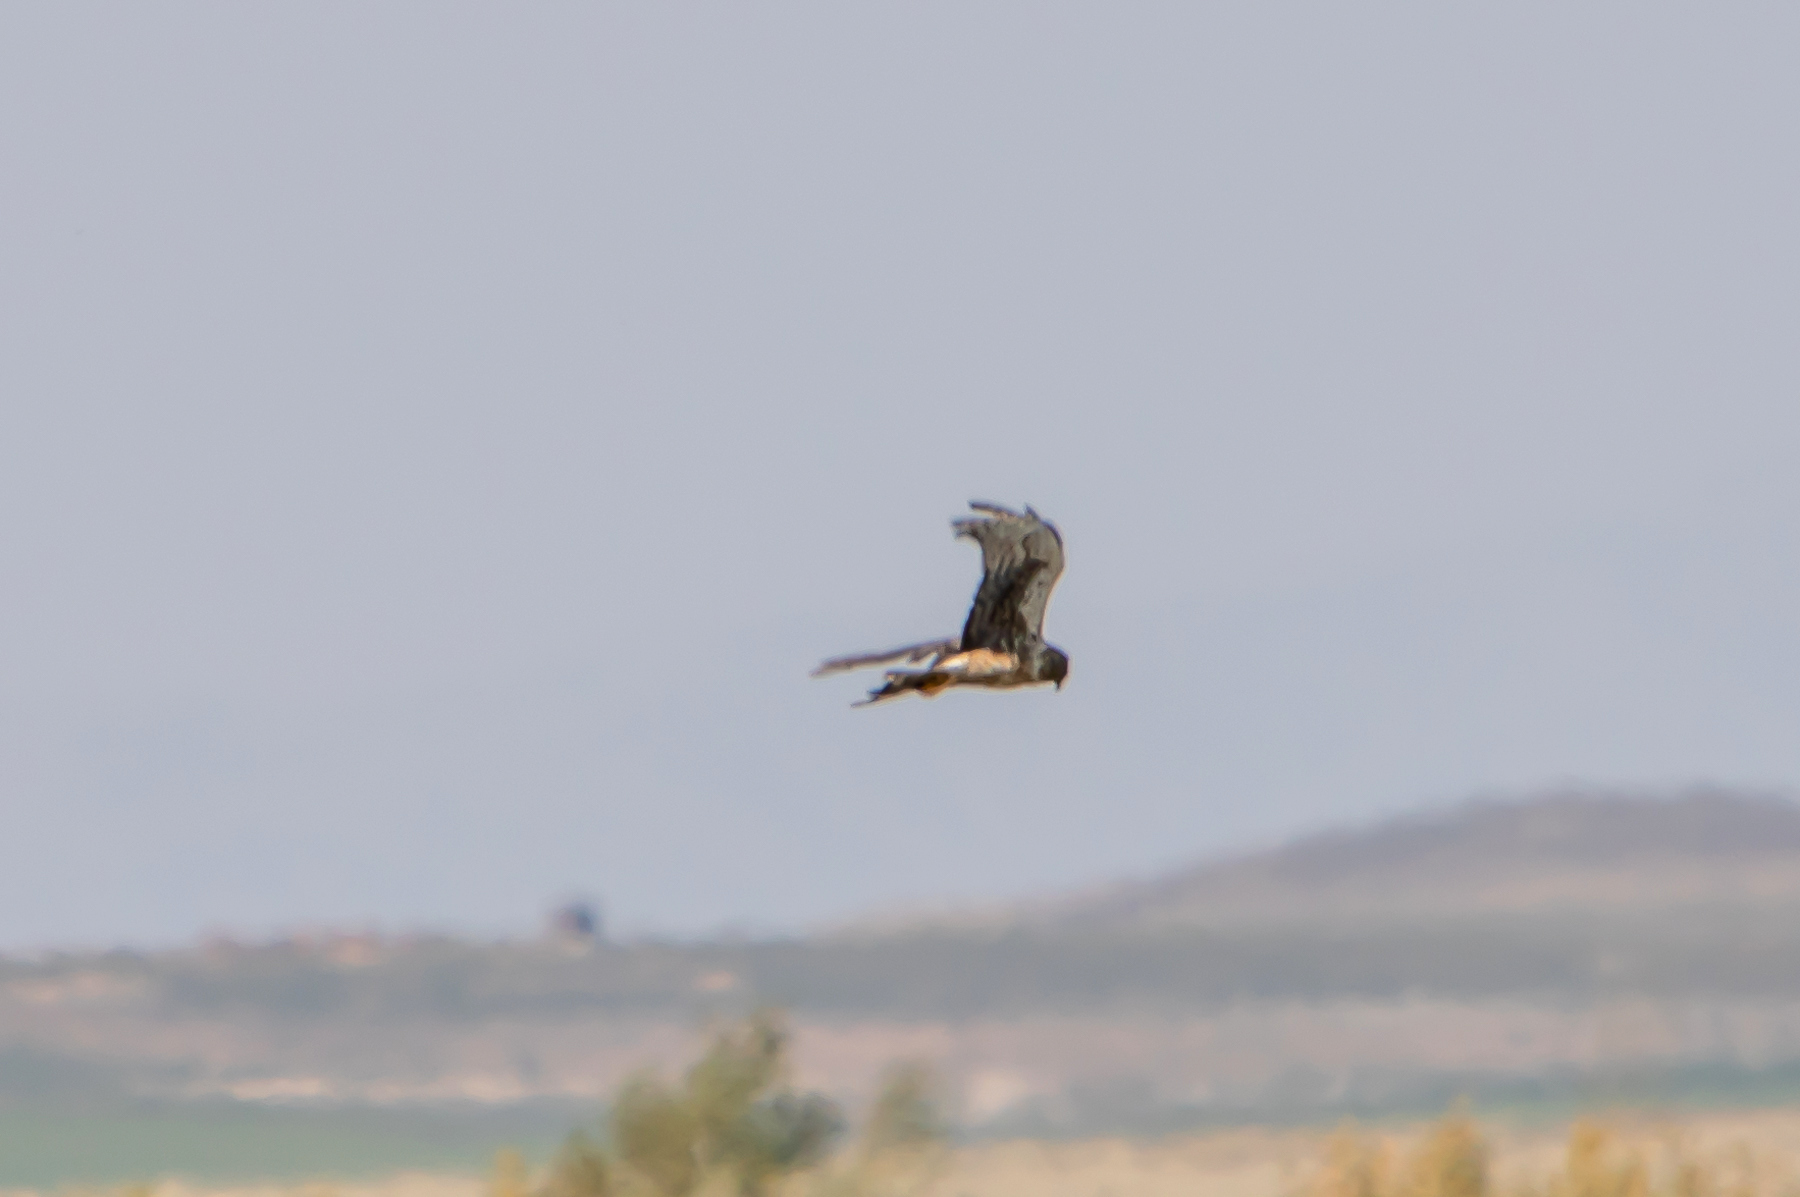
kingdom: Animalia
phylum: Chordata
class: Aves
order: Accipitriformes
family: Accipitridae
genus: Circus
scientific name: Circus cyaneus
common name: Hen harrier
